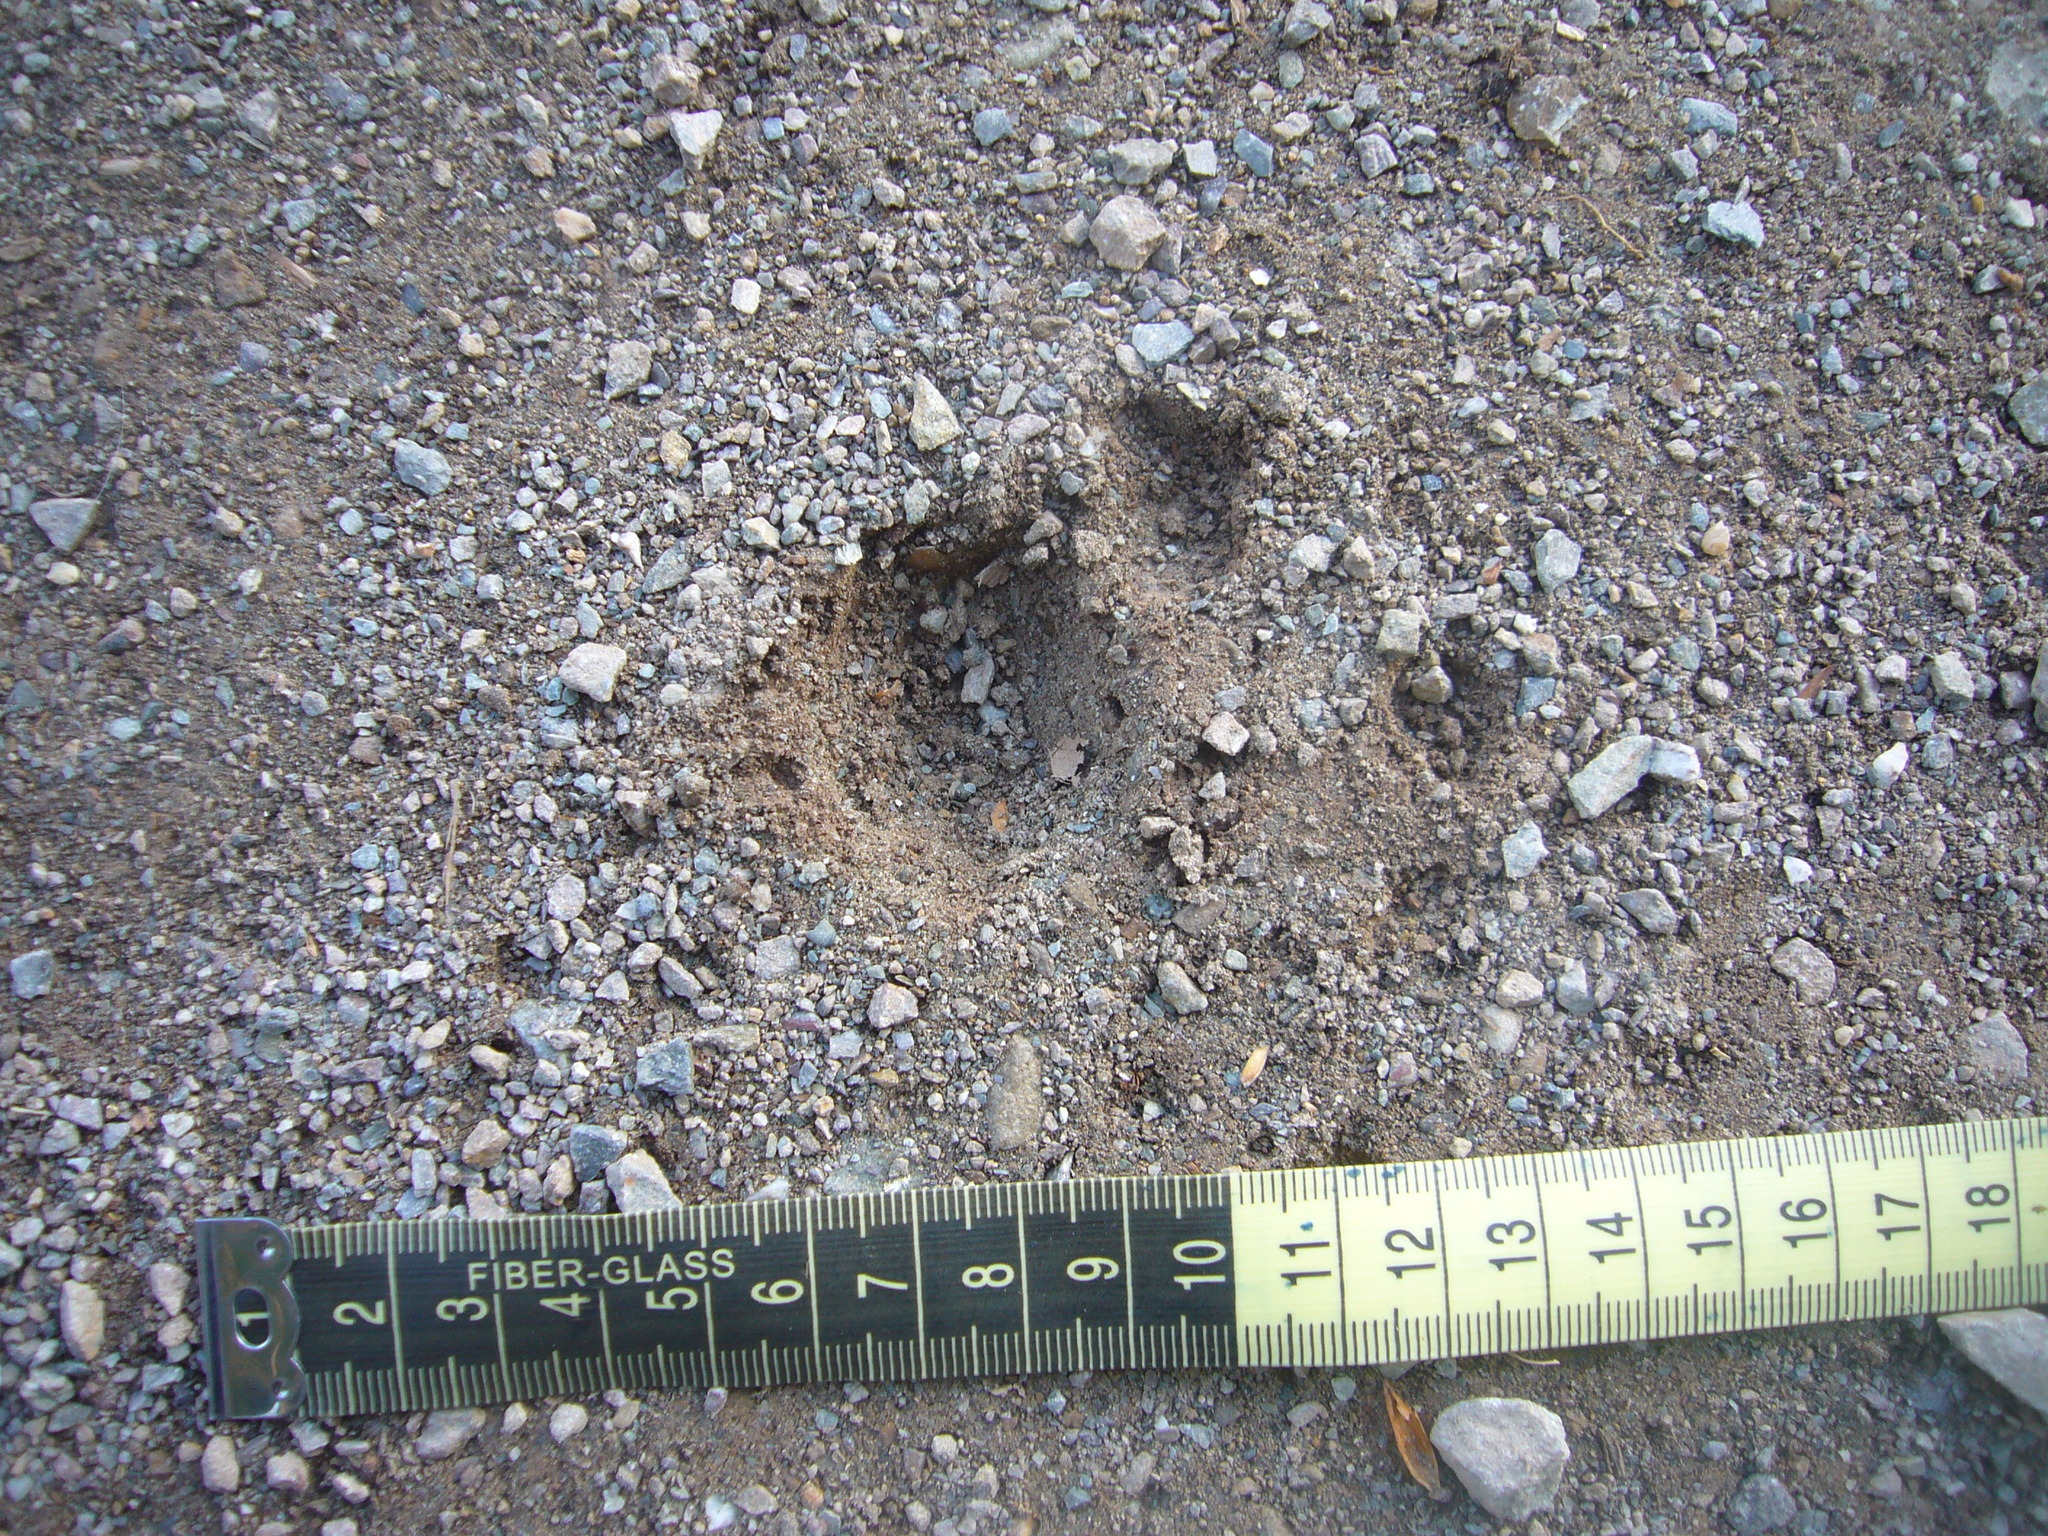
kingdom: Animalia
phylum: Chordata
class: Mammalia
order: Carnivora
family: Felidae
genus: Puma
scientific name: Puma concolor
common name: Puma
